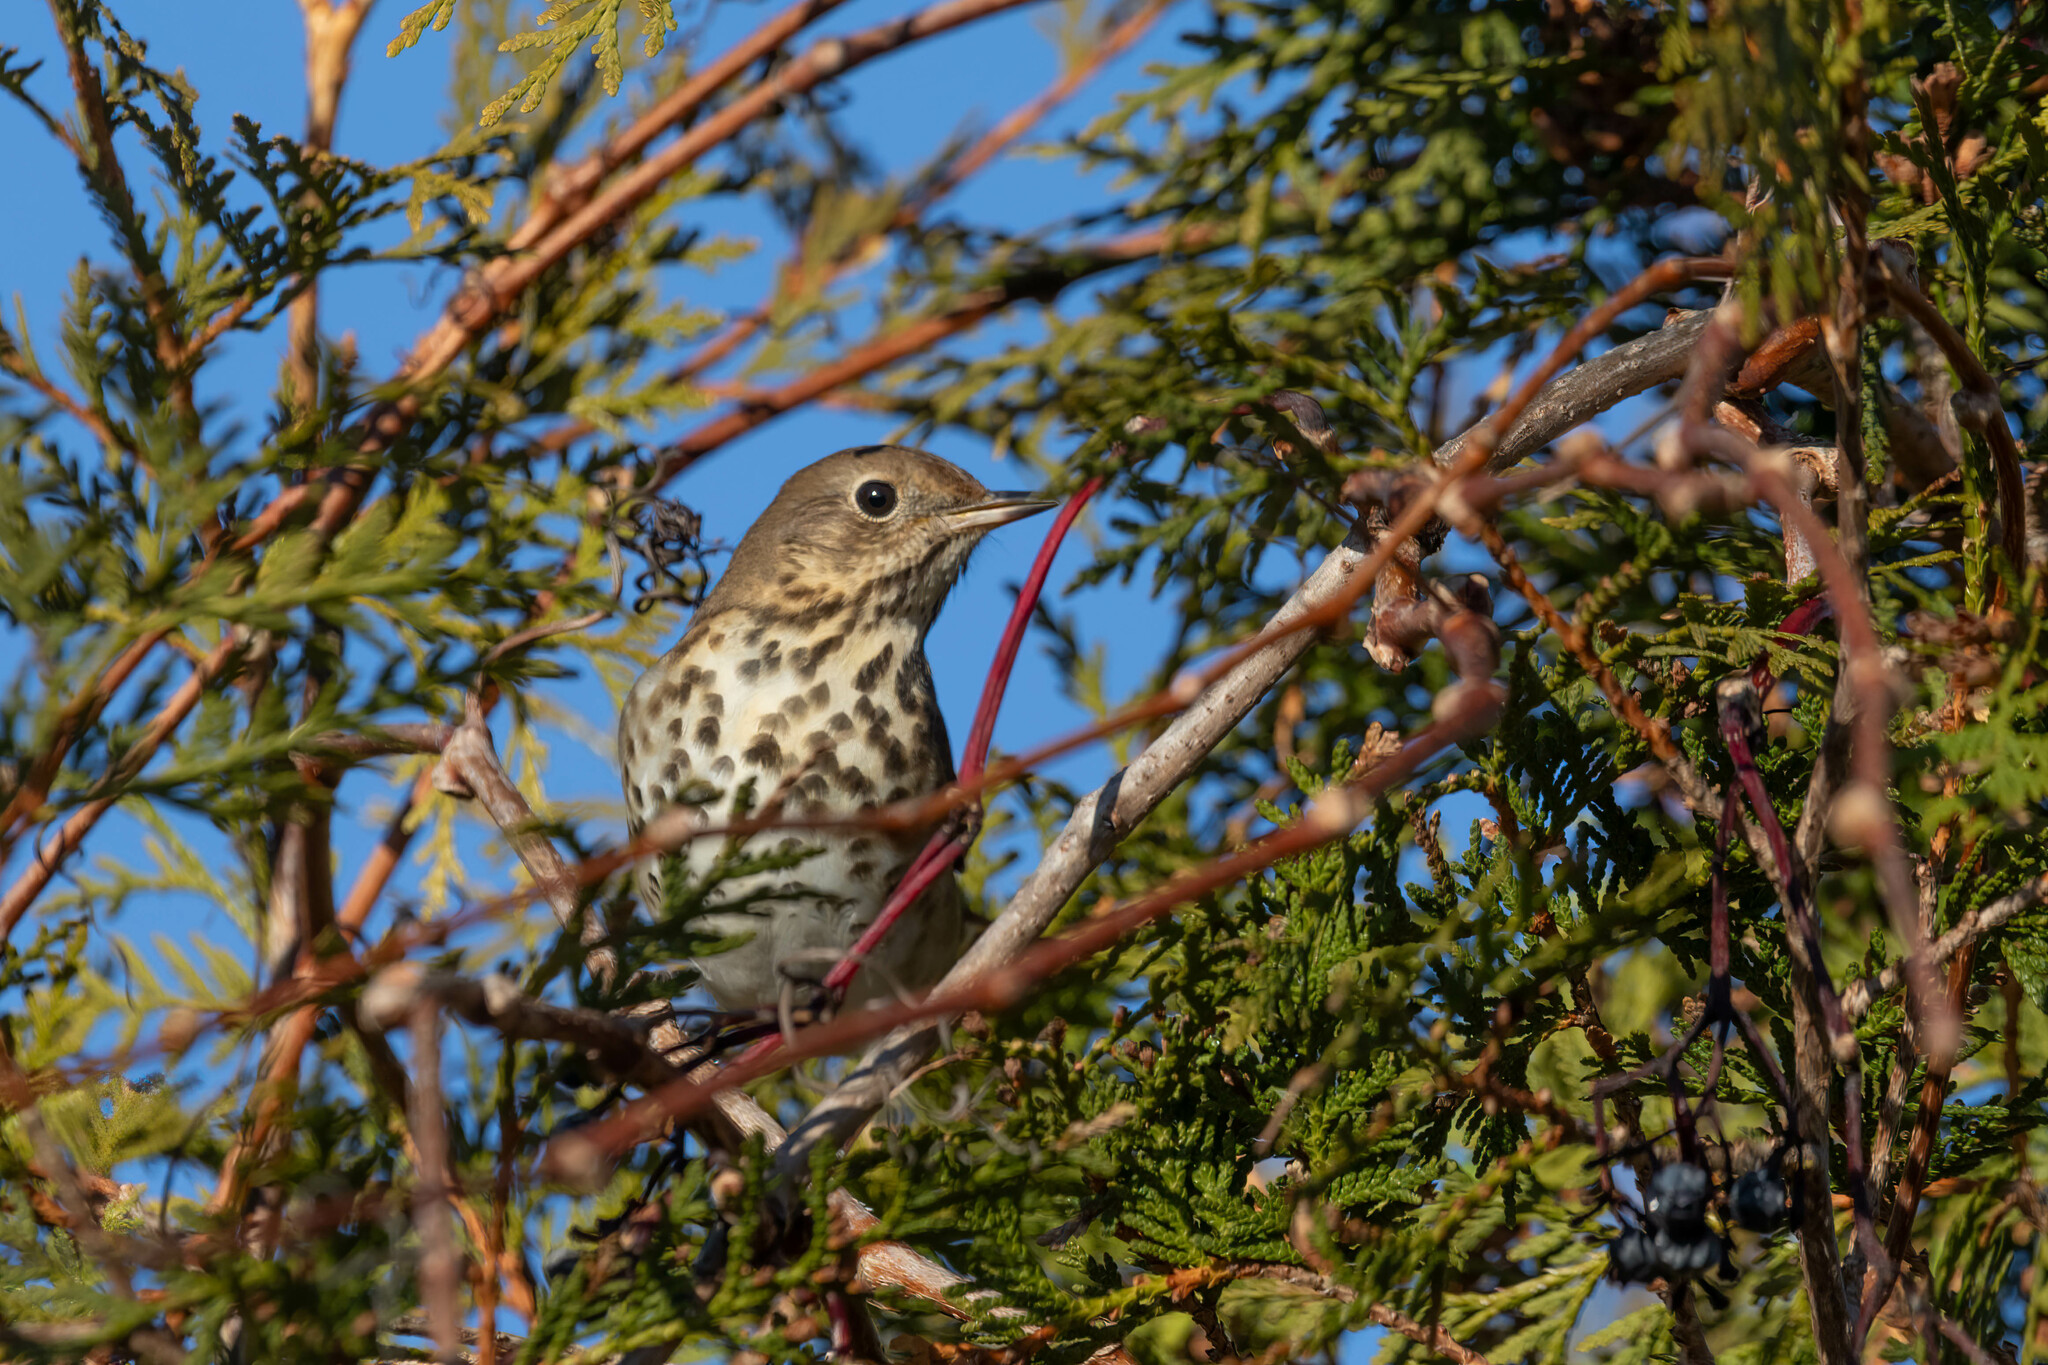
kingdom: Animalia
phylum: Chordata
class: Aves
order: Passeriformes
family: Turdidae
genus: Catharus
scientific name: Catharus guttatus
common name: Hermit thrush
